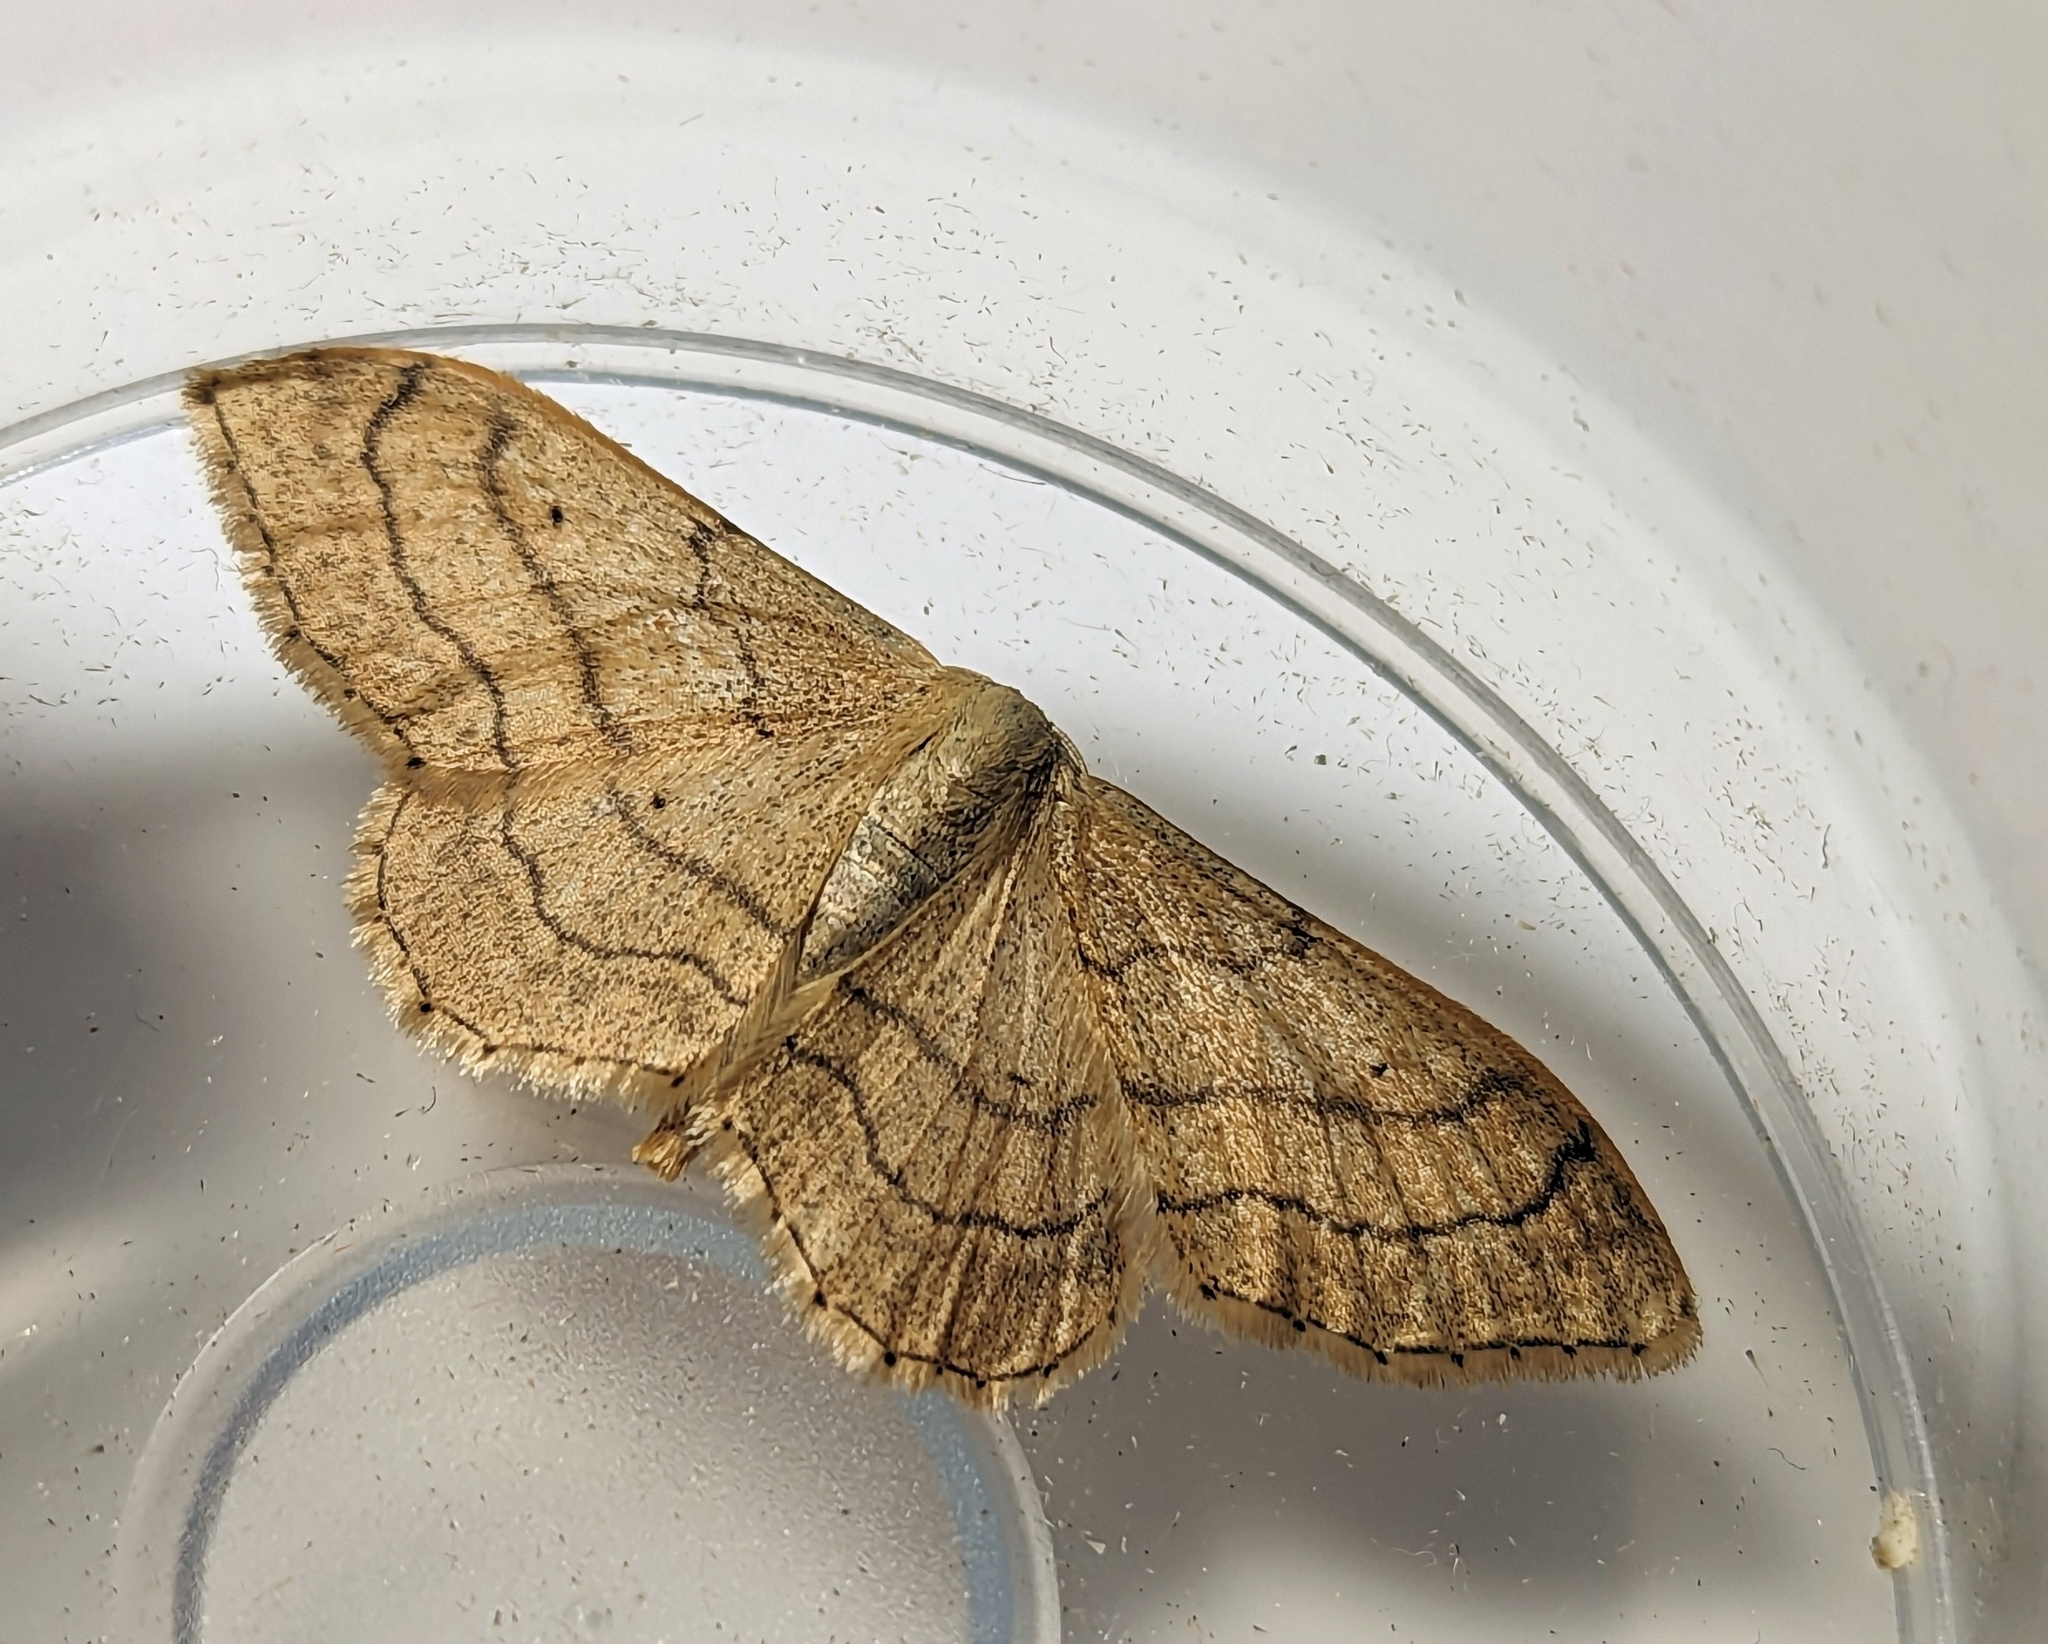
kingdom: Animalia
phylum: Arthropoda
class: Insecta
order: Lepidoptera
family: Geometridae
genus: Idaea
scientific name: Idaea aversata
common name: Riband wave
